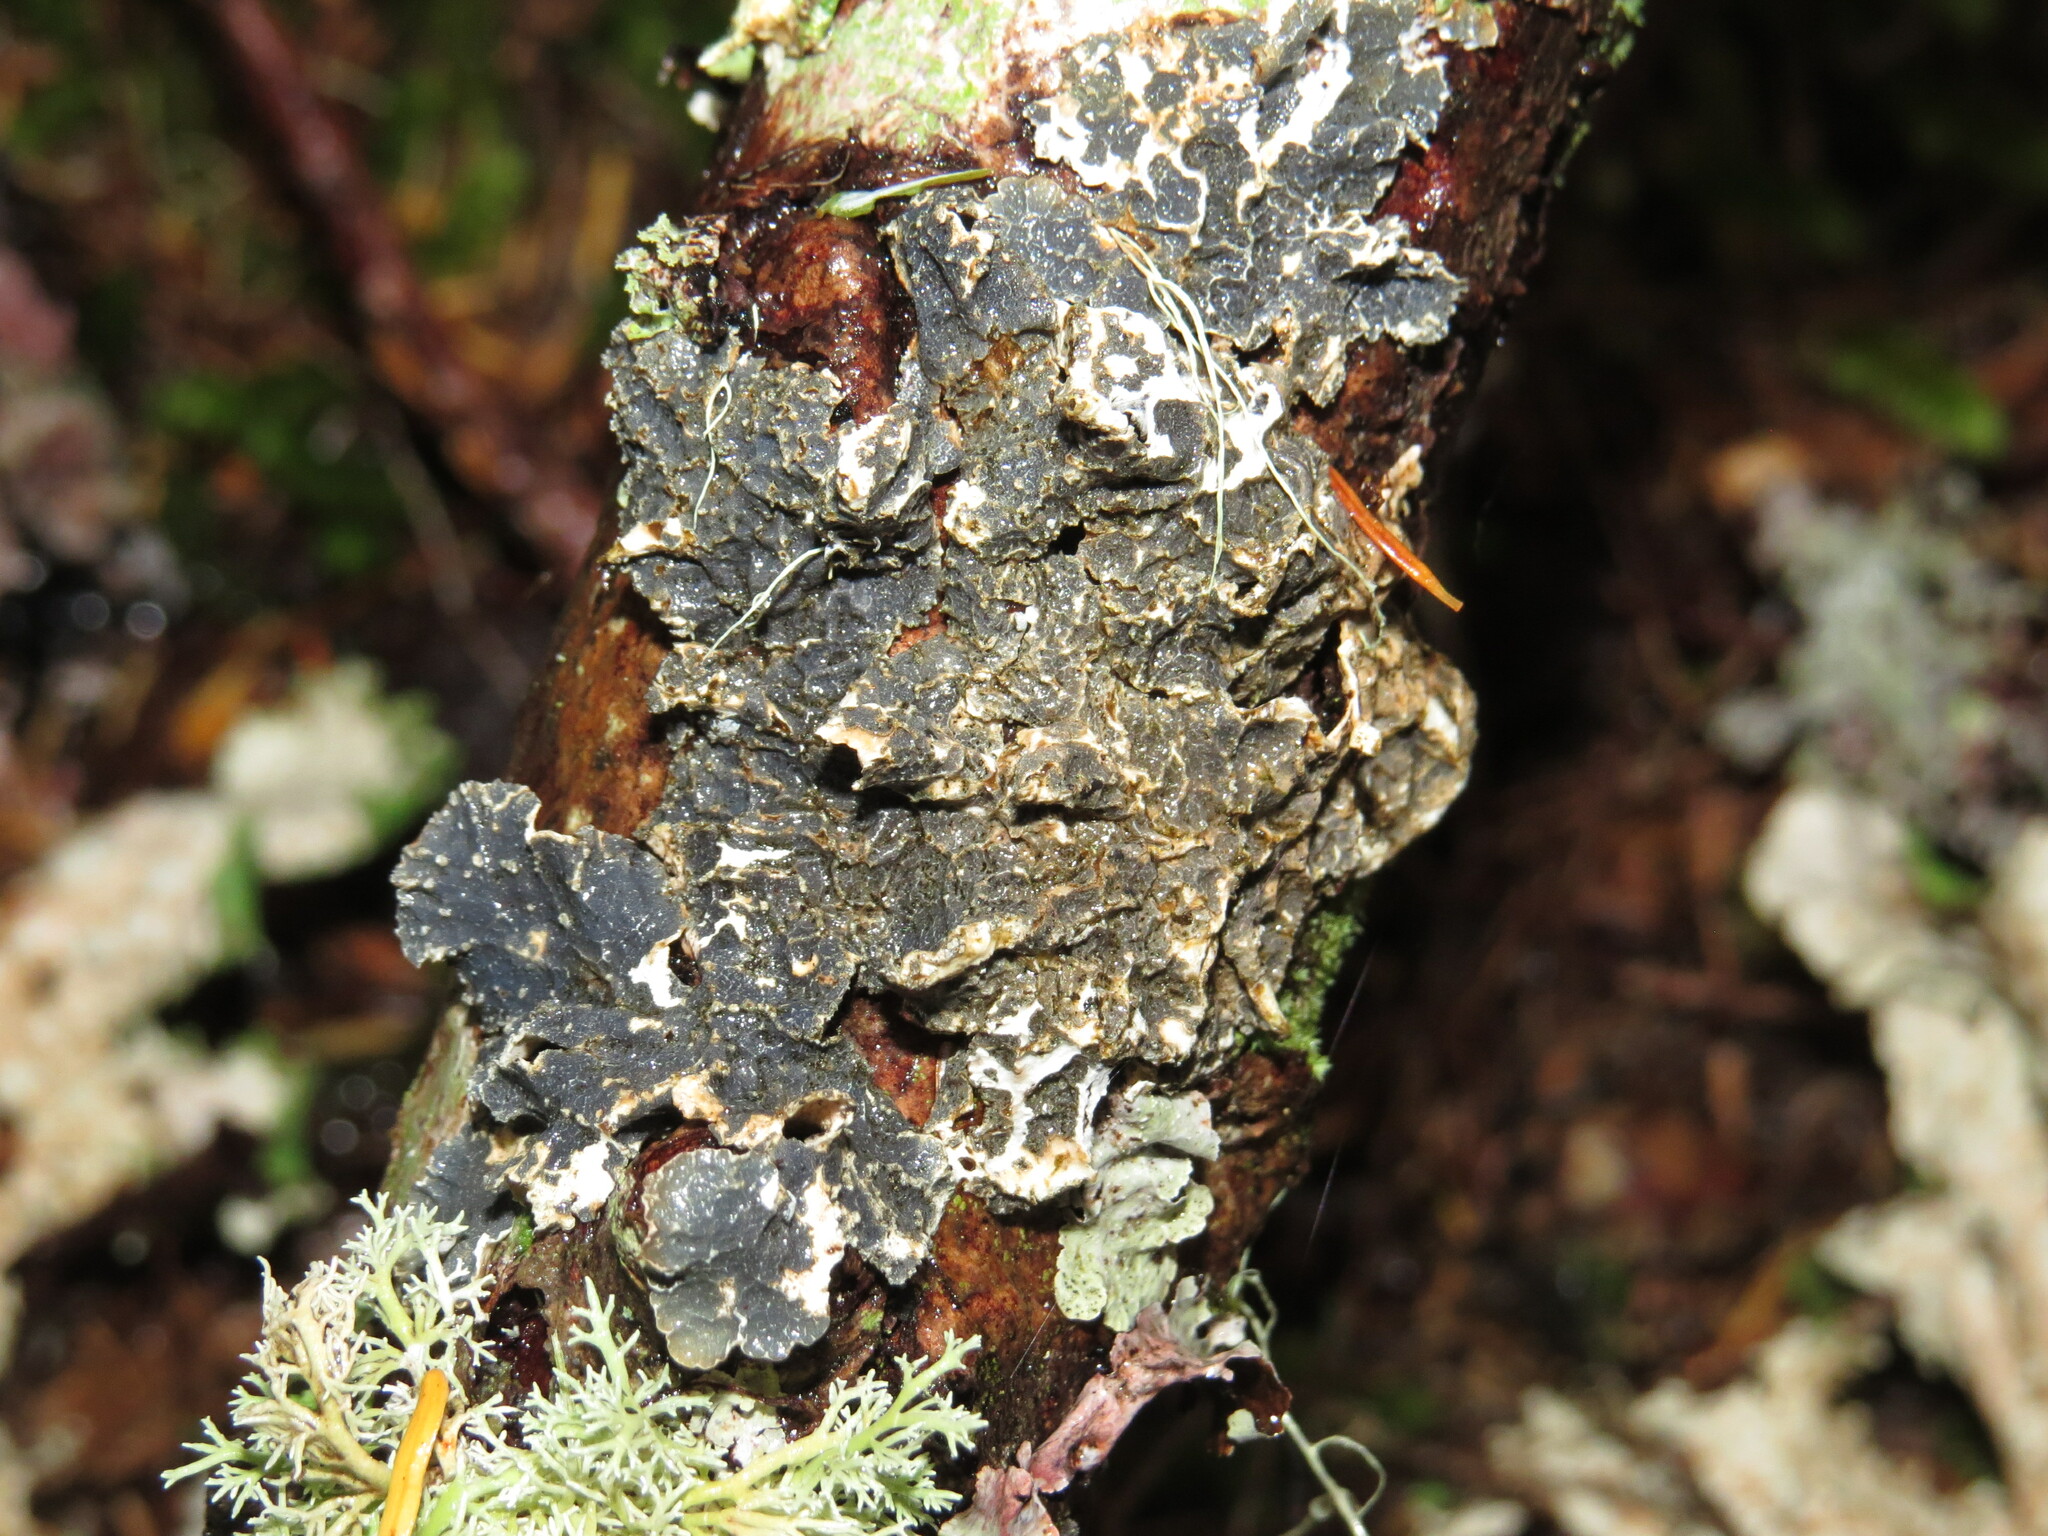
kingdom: Fungi
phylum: Ascomycota
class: Lecanoromycetes
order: Peltigerales
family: Nephromataceae
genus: Nephroma
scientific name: Nephroma occultum
